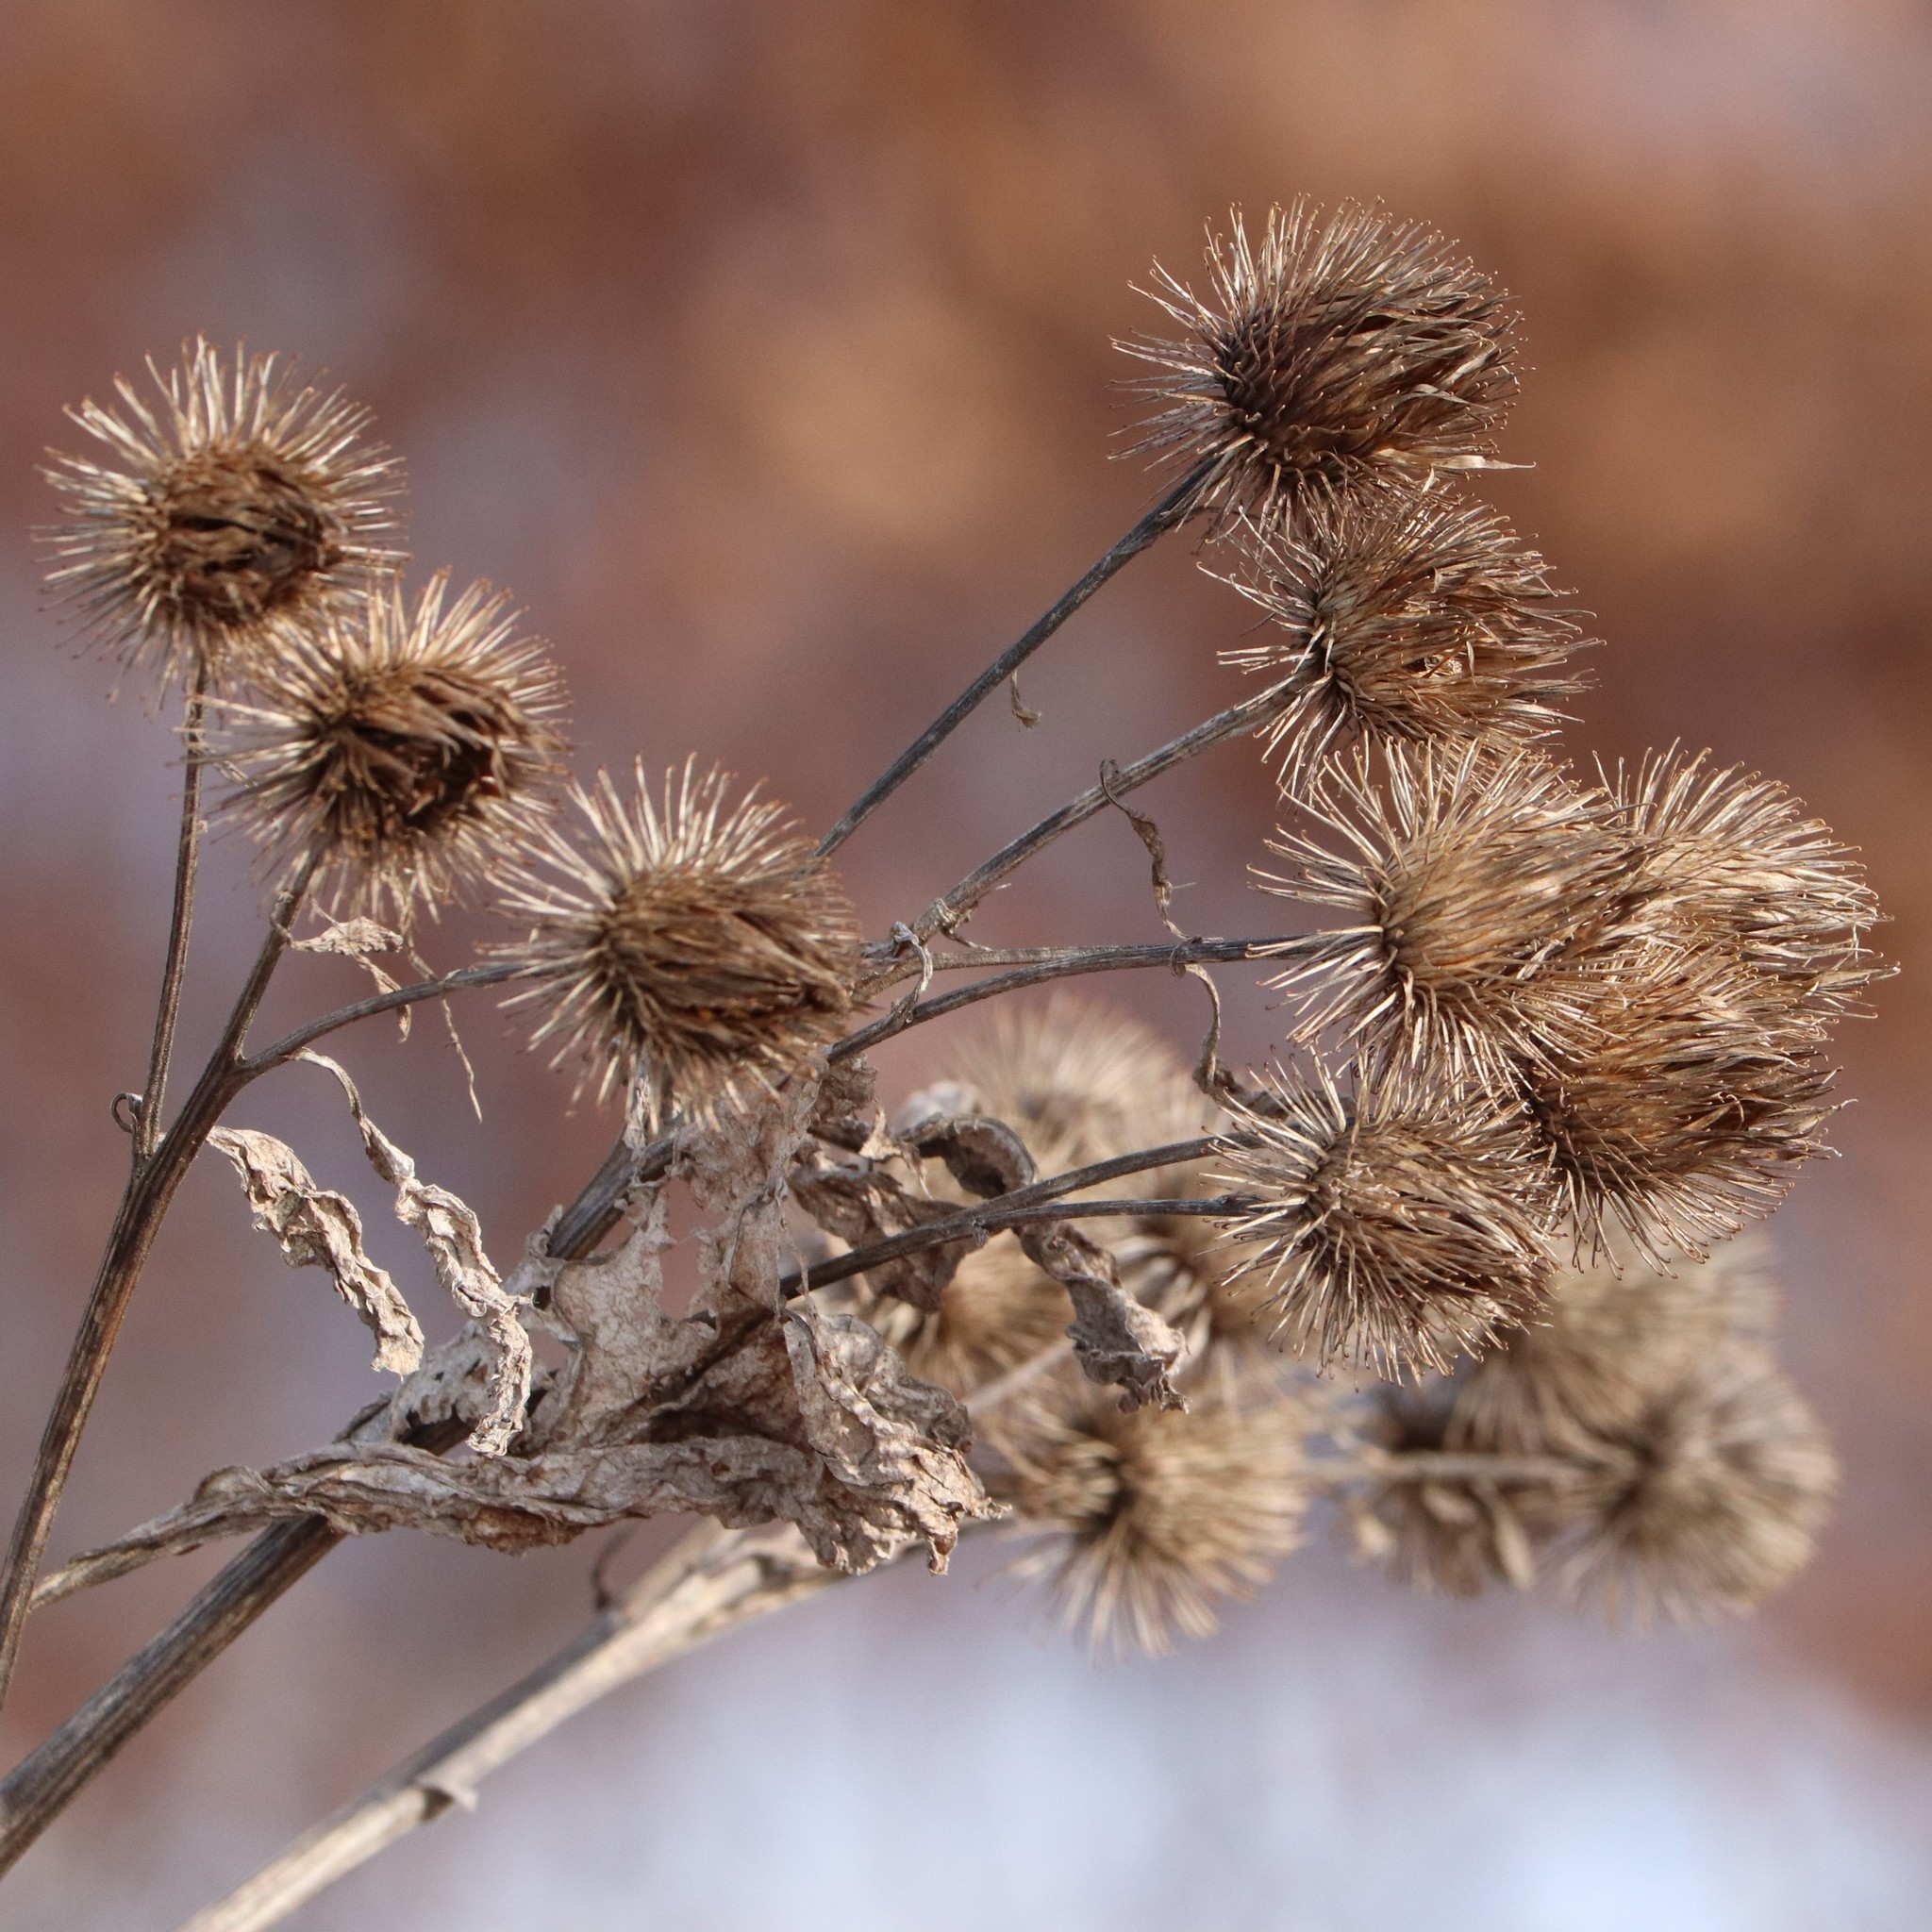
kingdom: Plantae
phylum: Tracheophyta
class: Magnoliopsida
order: Asterales
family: Asteraceae
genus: Arctium
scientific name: Arctium lappa
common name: Greater burdock
